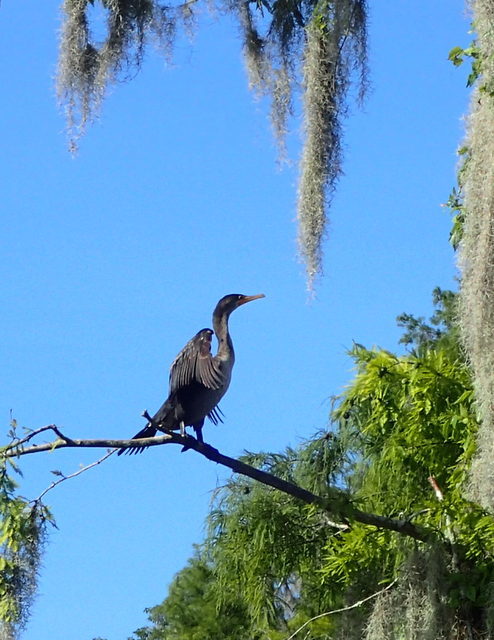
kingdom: Animalia
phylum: Chordata
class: Aves
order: Suliformes
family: Phalacrocoracidae
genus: Phalacrocorax
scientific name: Phalacrocorax auritus
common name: Double-crested cormorant
